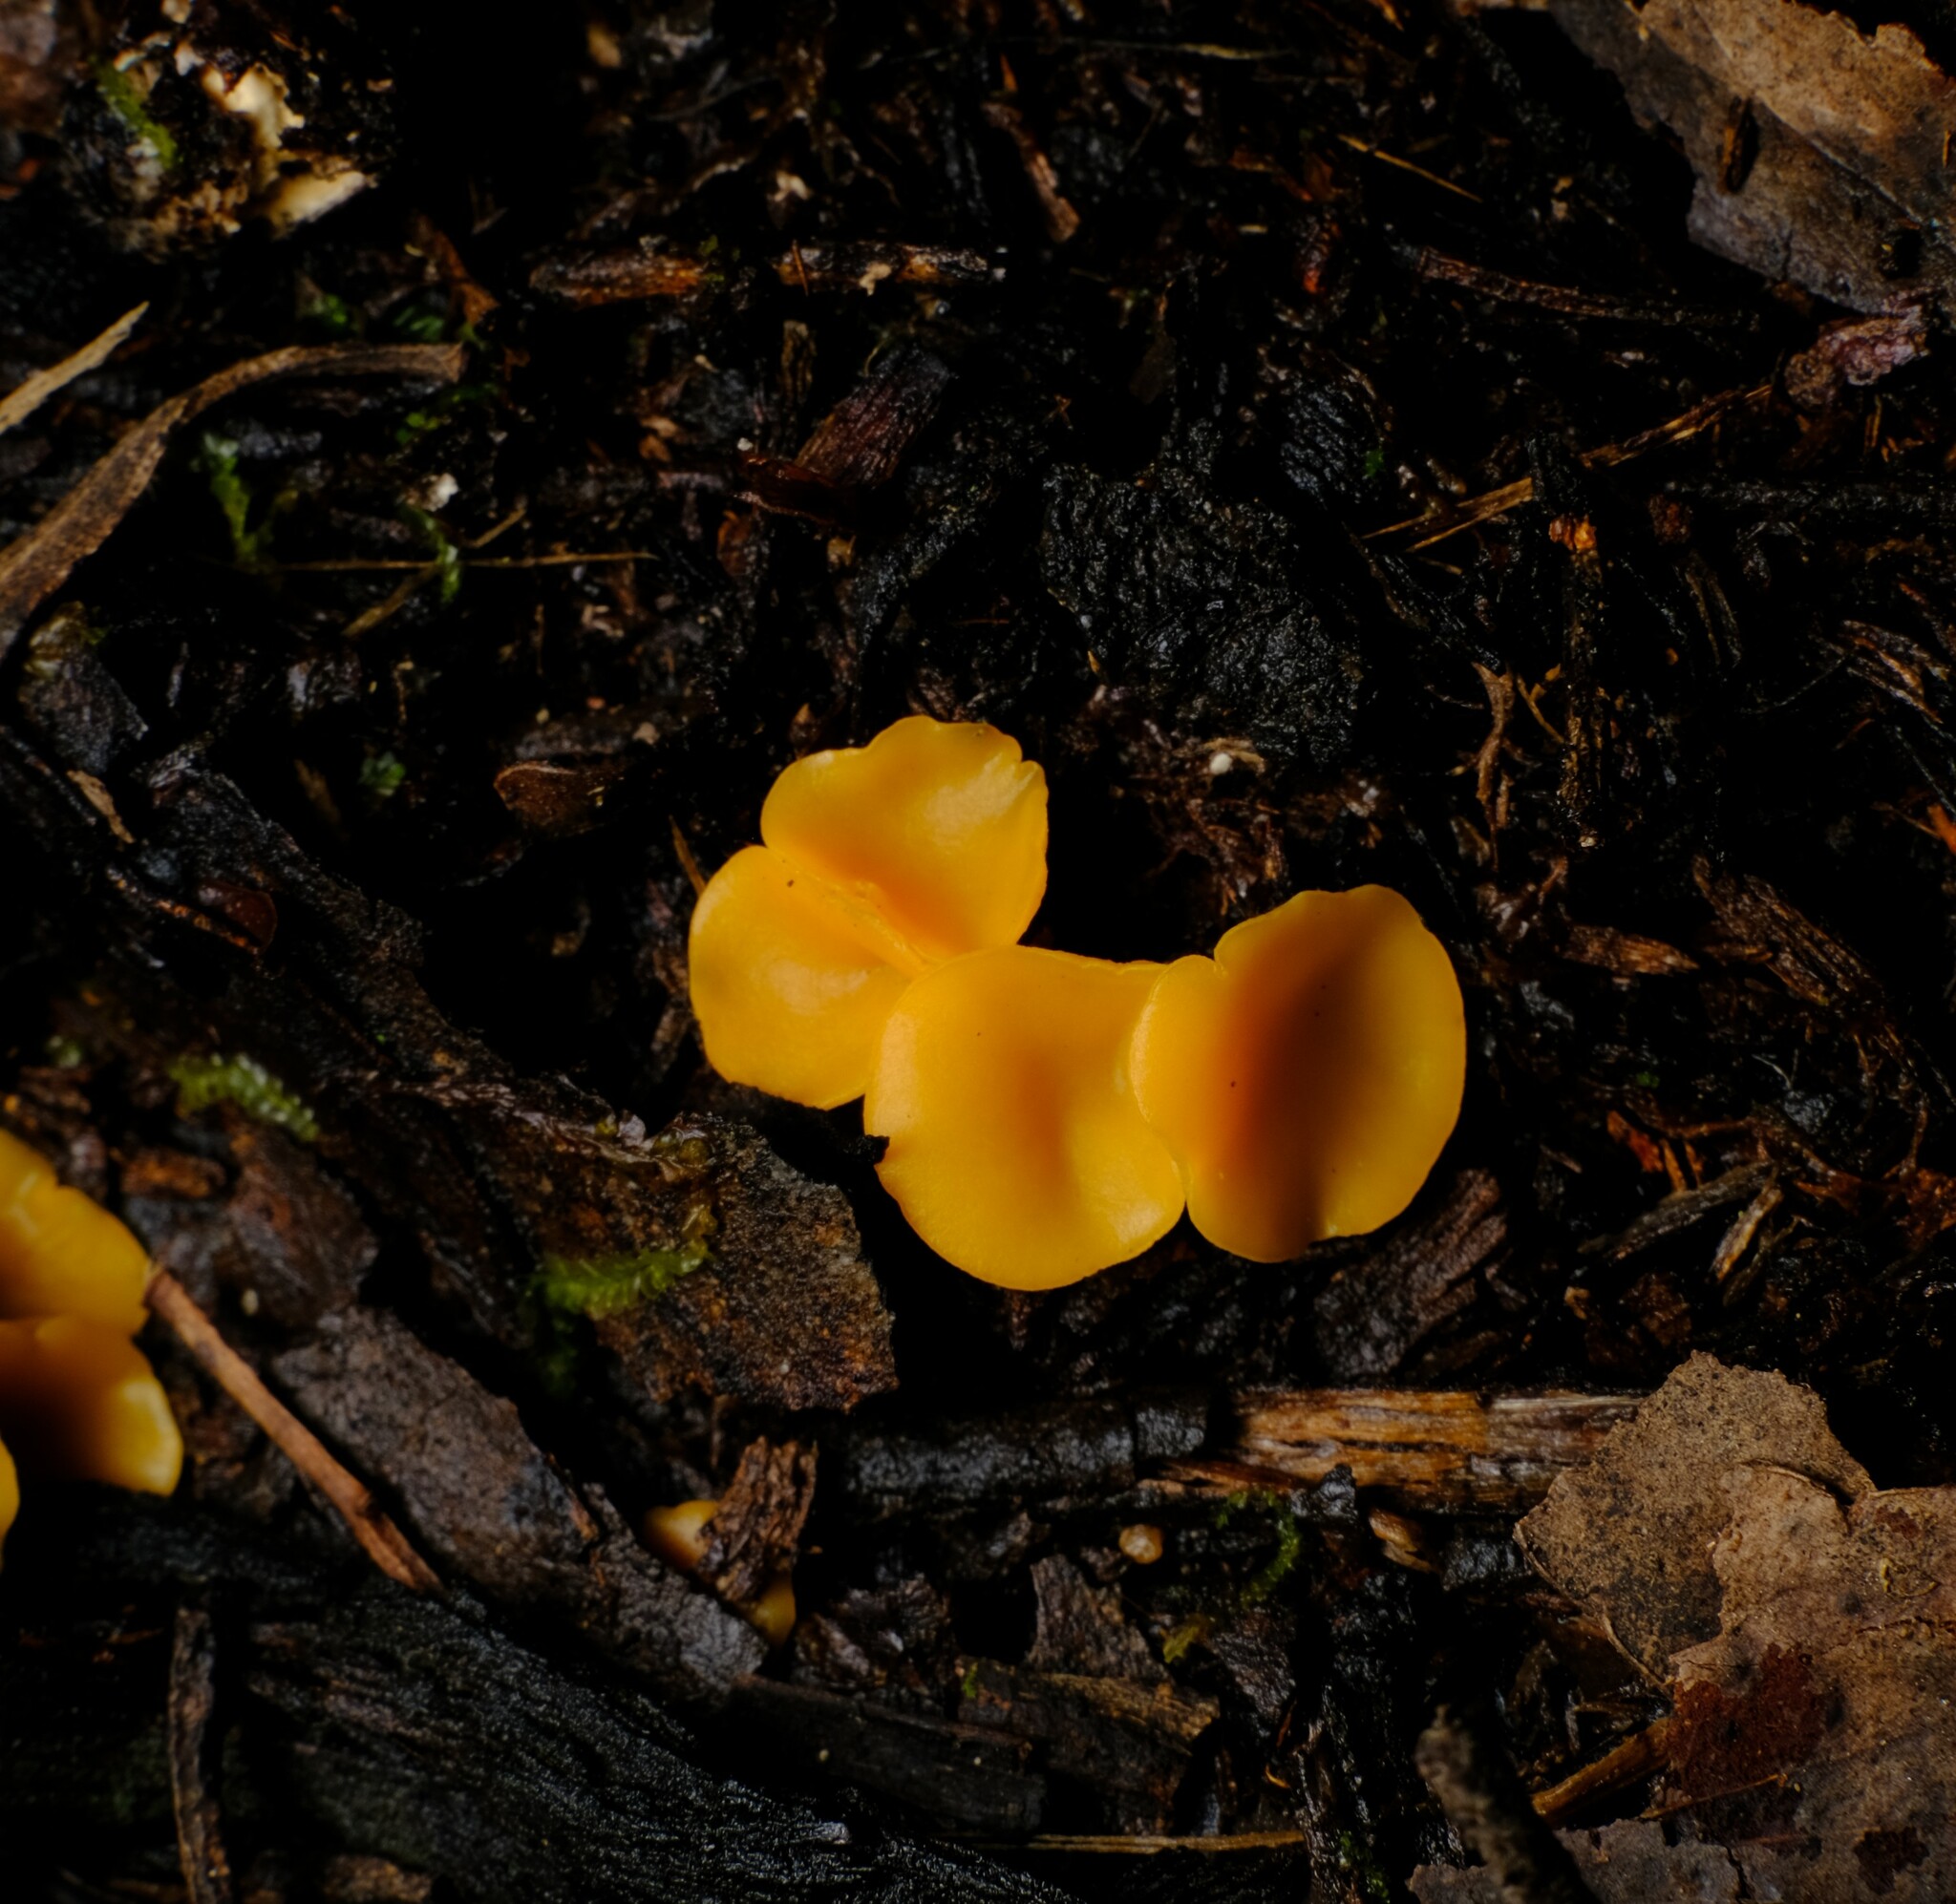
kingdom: Fungi
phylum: Ascomycota
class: Leotiomycetes
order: Helotiales
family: Helotiaceae
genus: Phaeohelotium
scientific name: Phaeohelotium baileyanum
